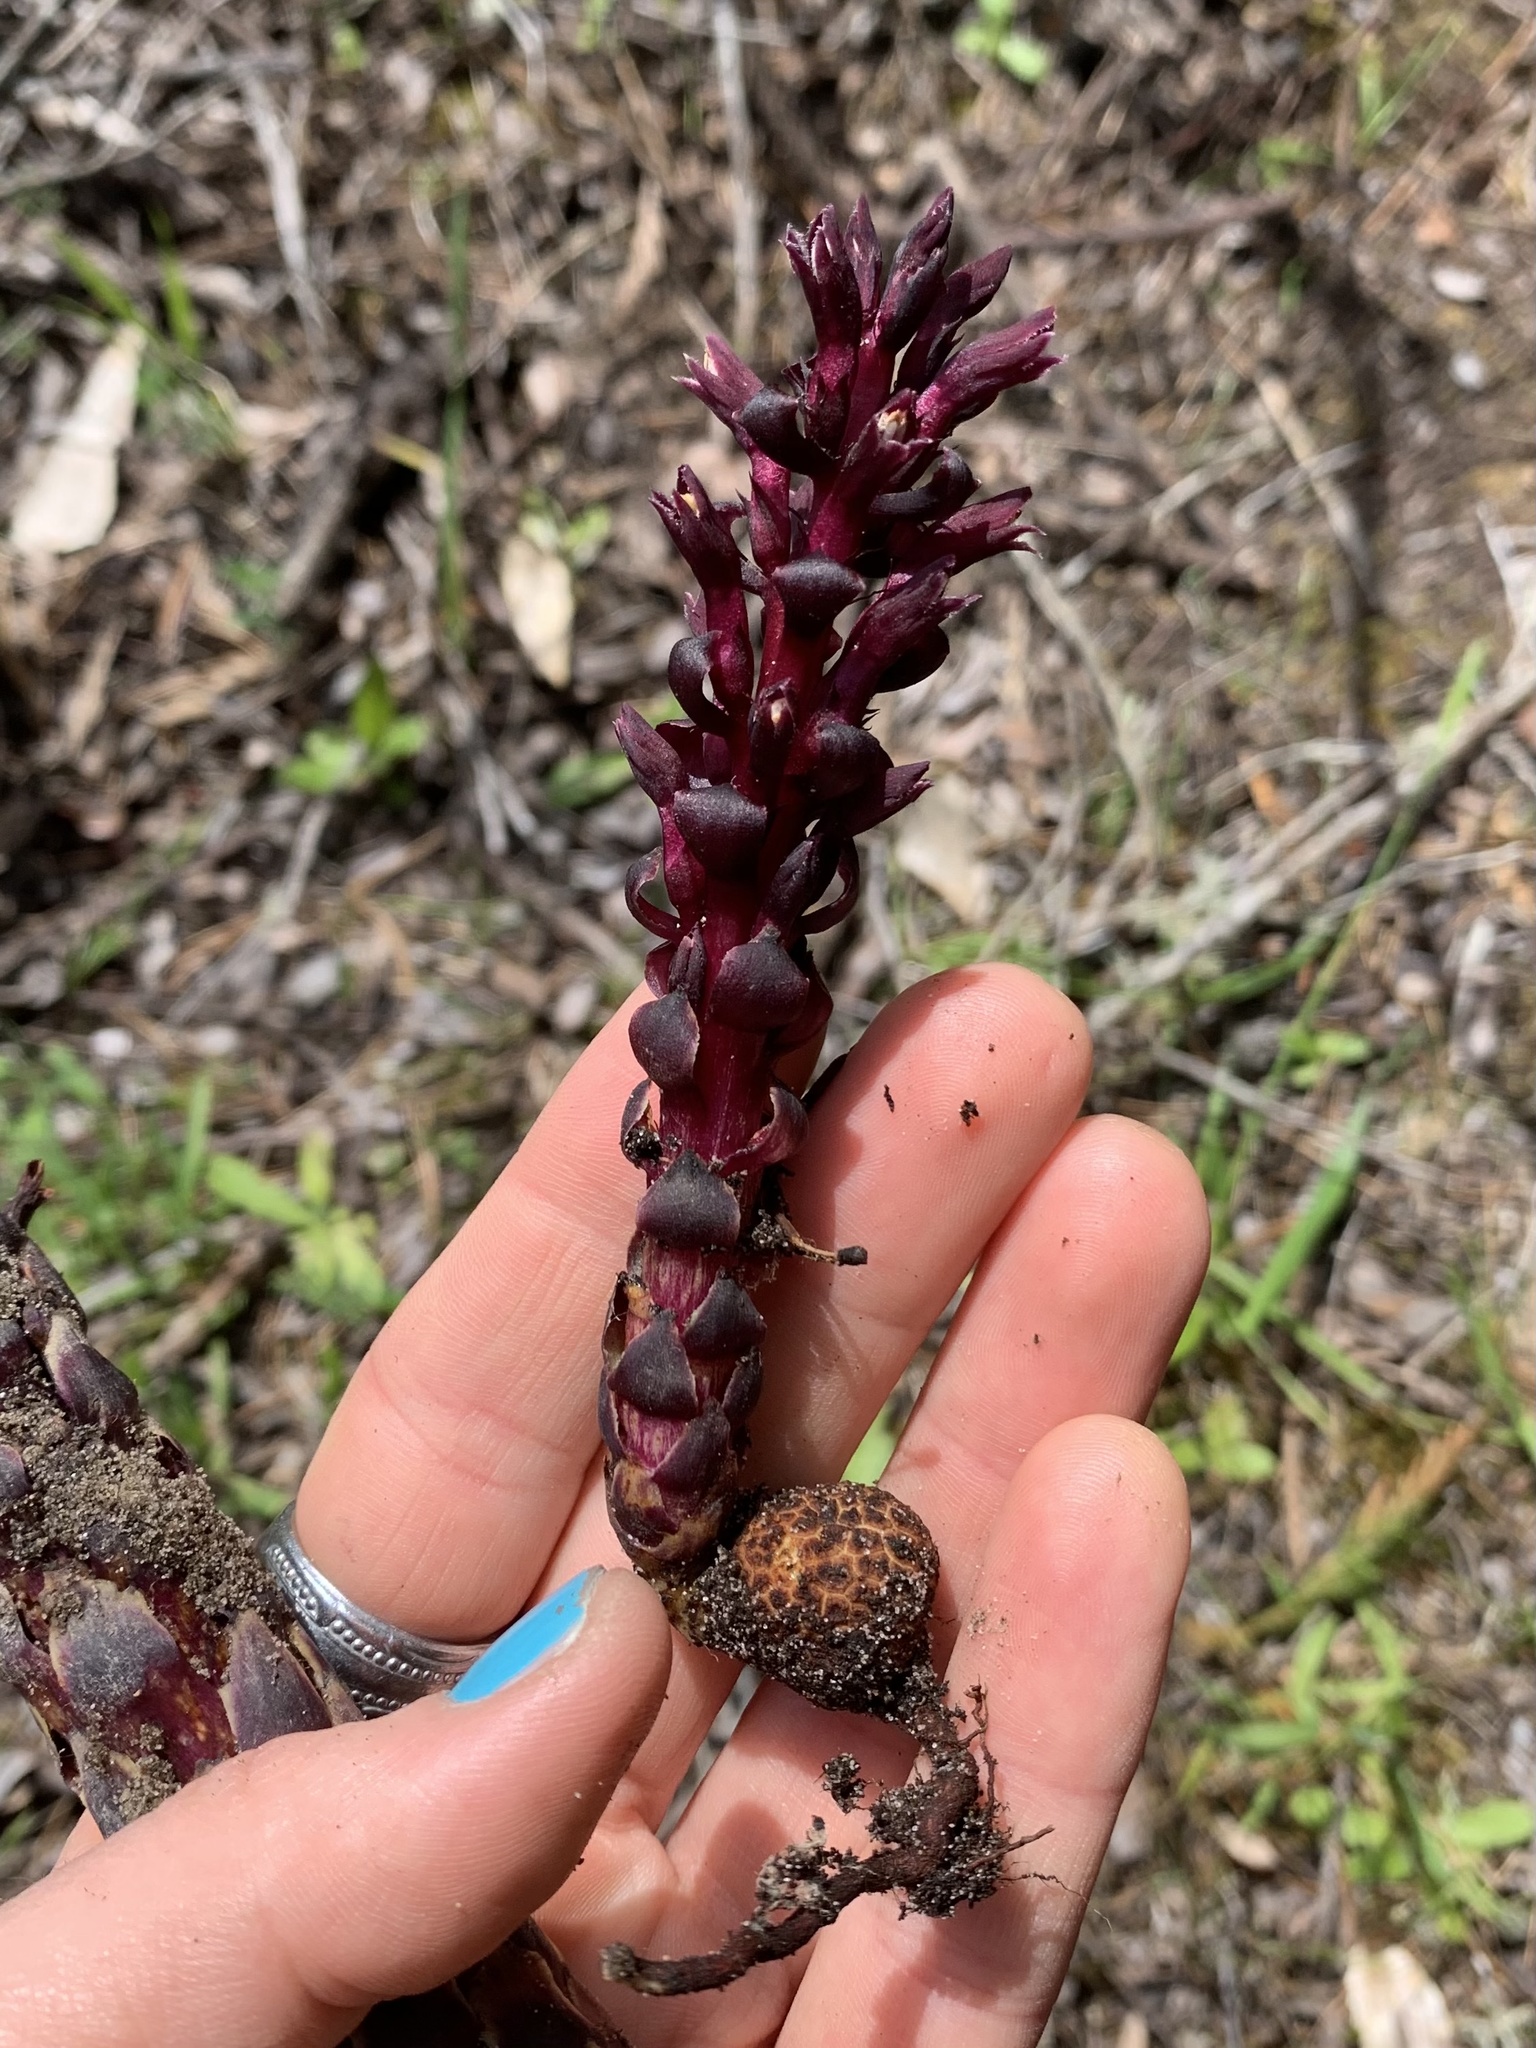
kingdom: Plantae
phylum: Tracheophyta
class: Magnoliopsida
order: Lamiales
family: Orobanchaceae
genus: Kopsiopsis
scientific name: Kopsiopsis hookeri
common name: Hooker's groundcone
